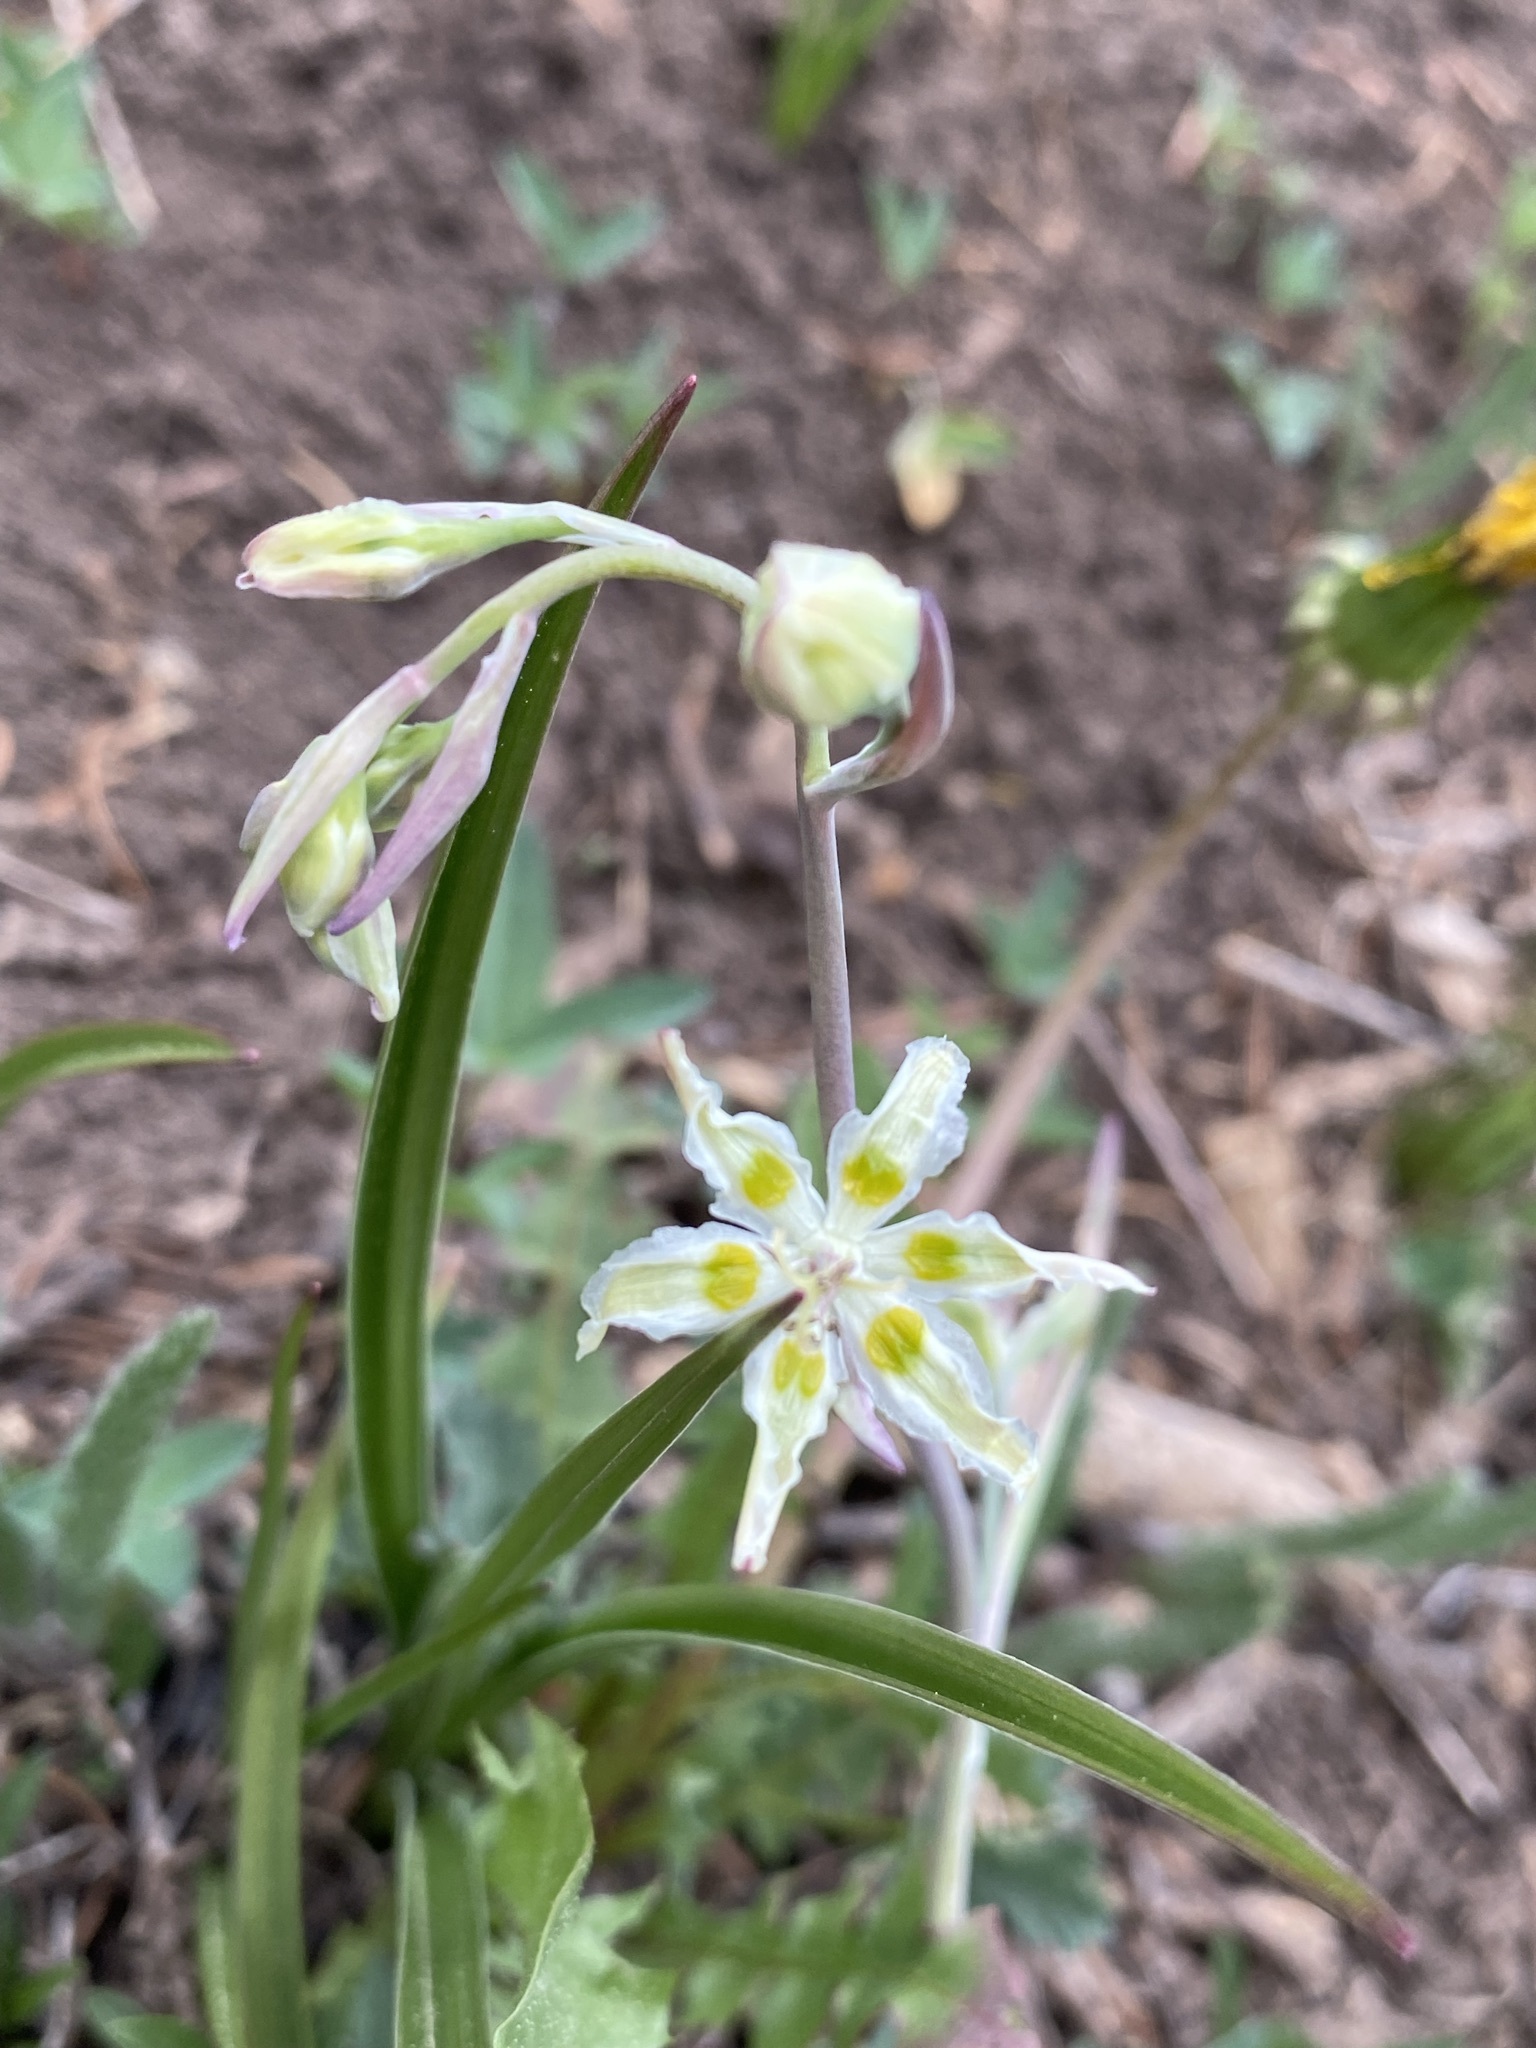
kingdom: Plantae
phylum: Tracheophyta
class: Liliopsida
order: Liliales
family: Melanthiaceae
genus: Anticlea
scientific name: Anticlea elegans
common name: Mountain death camas
